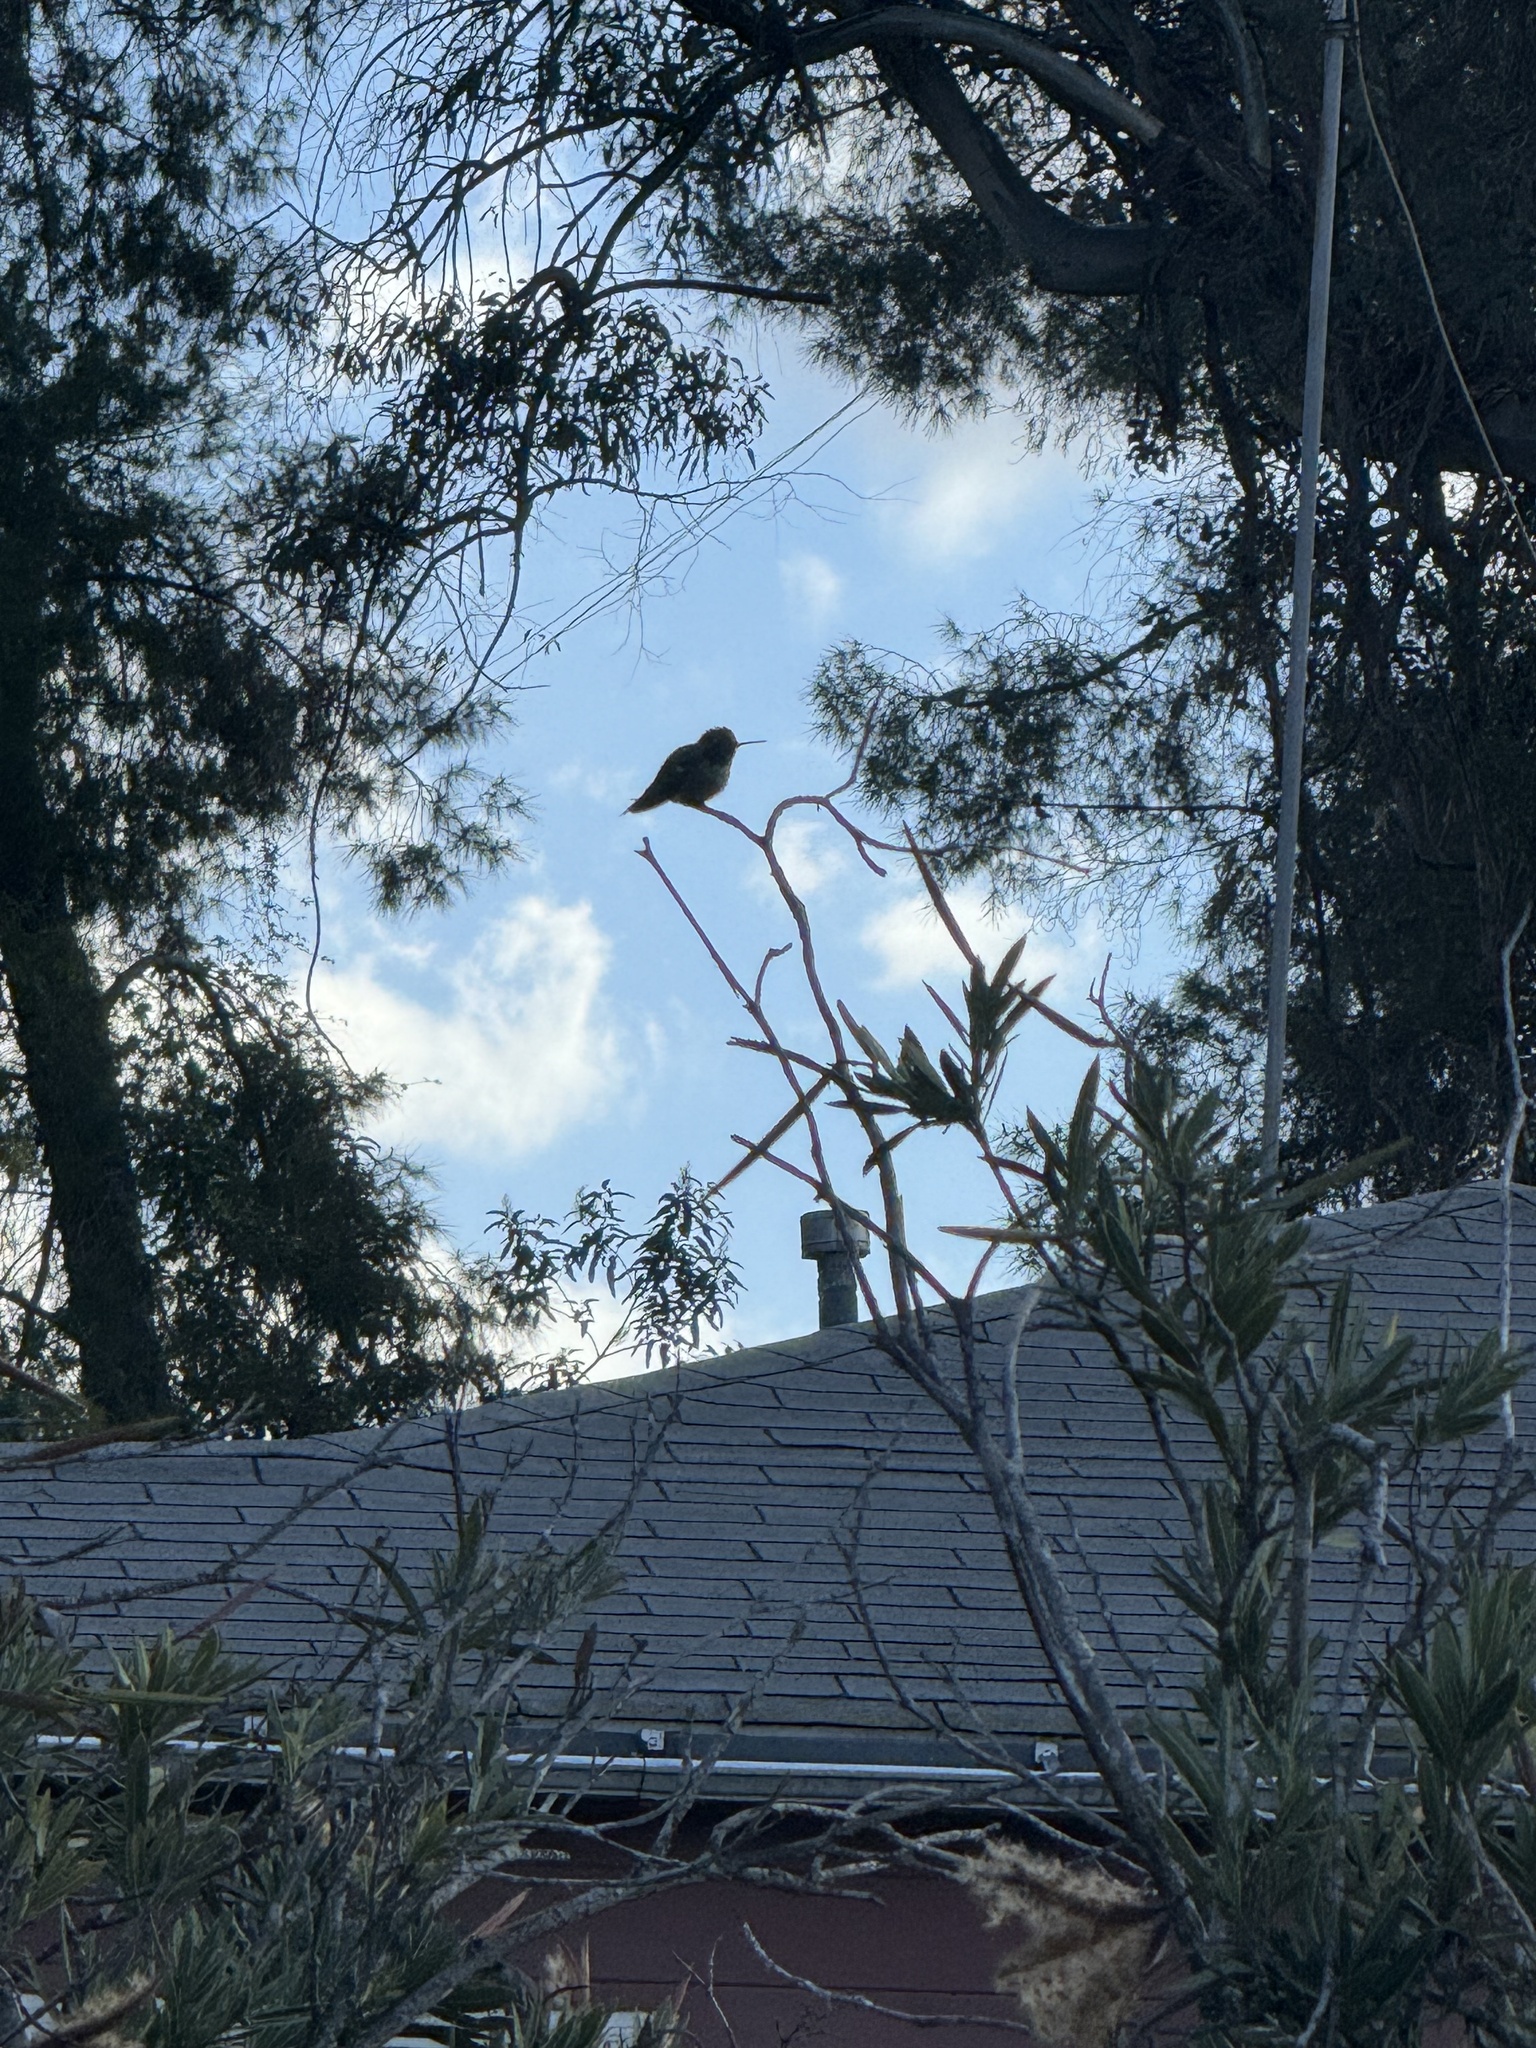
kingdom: Animalia
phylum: Chordata
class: Aves
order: Apodiformes
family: Trochilidae
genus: Calypte
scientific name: Calypte anna
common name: Anna's hummingbird
